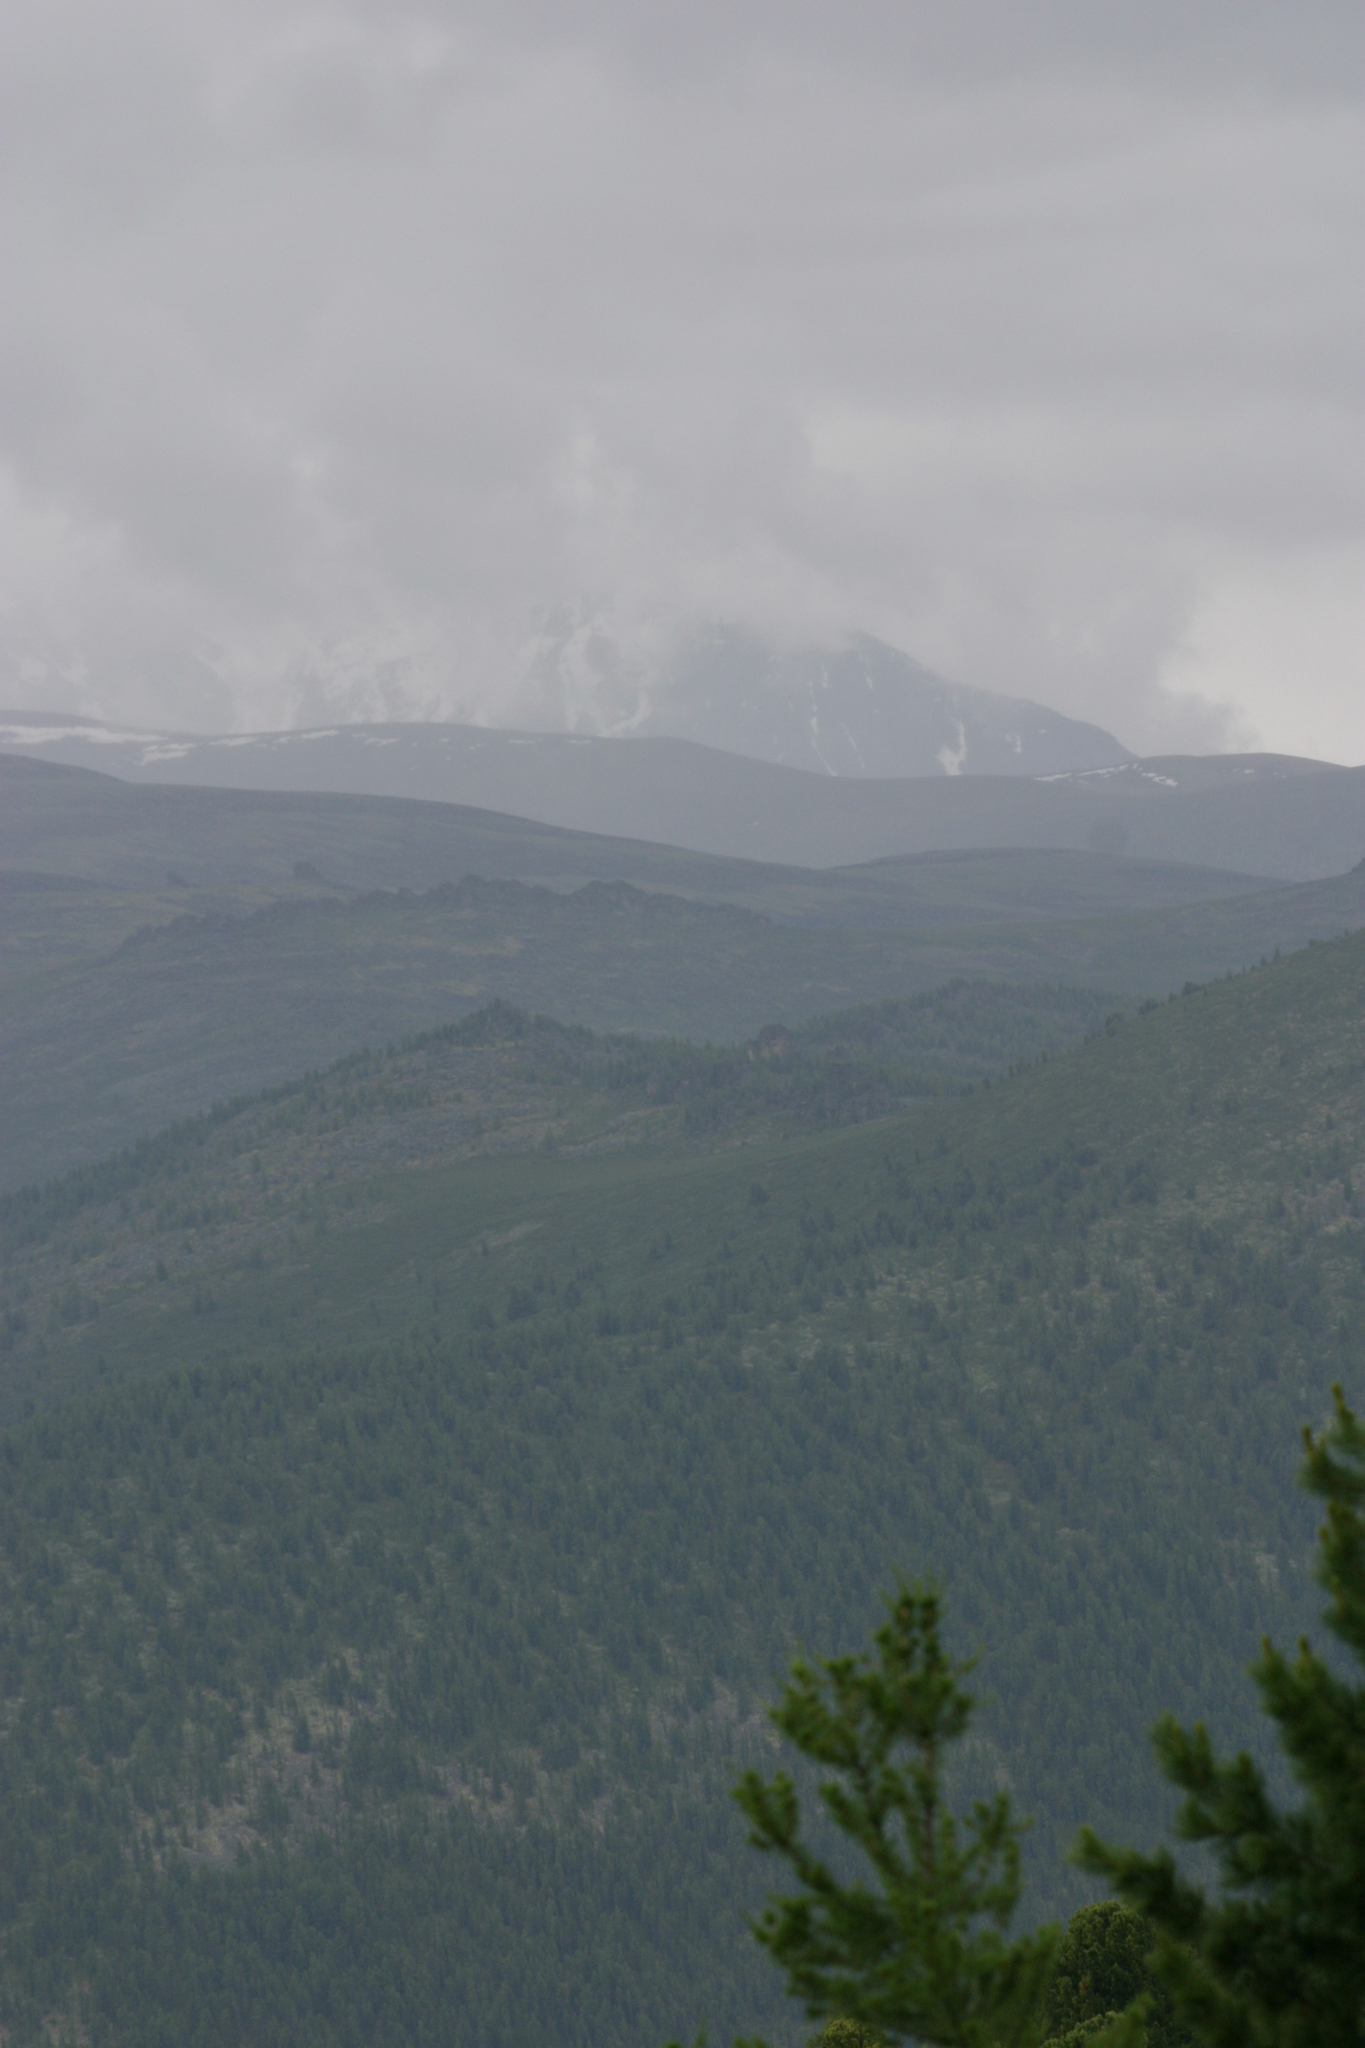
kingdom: Plantae
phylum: Tracheophyta
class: Pinopsida
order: Pinales
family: Pinaceae
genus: Pinus
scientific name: Pinus sibirica
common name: Siberian pine
